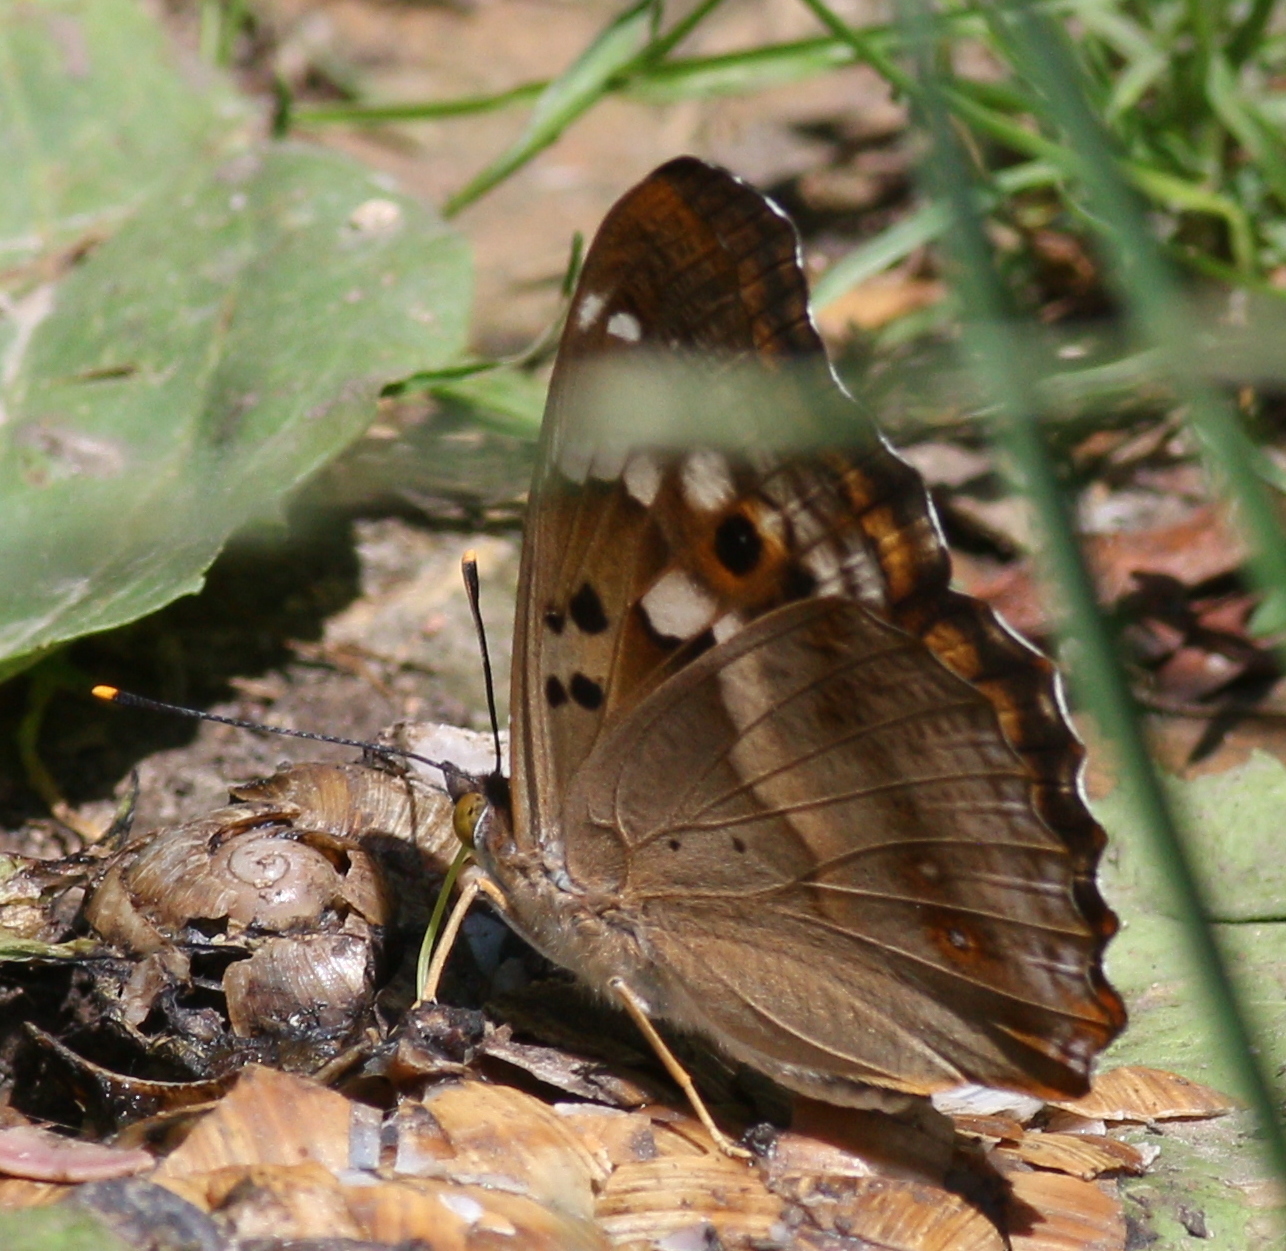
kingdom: Animalia
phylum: Arthropoda
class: Insecta
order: Lepidoptera
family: Nymphalidae
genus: Apatura
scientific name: Apatura ilia
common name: Lesser purple emperor
